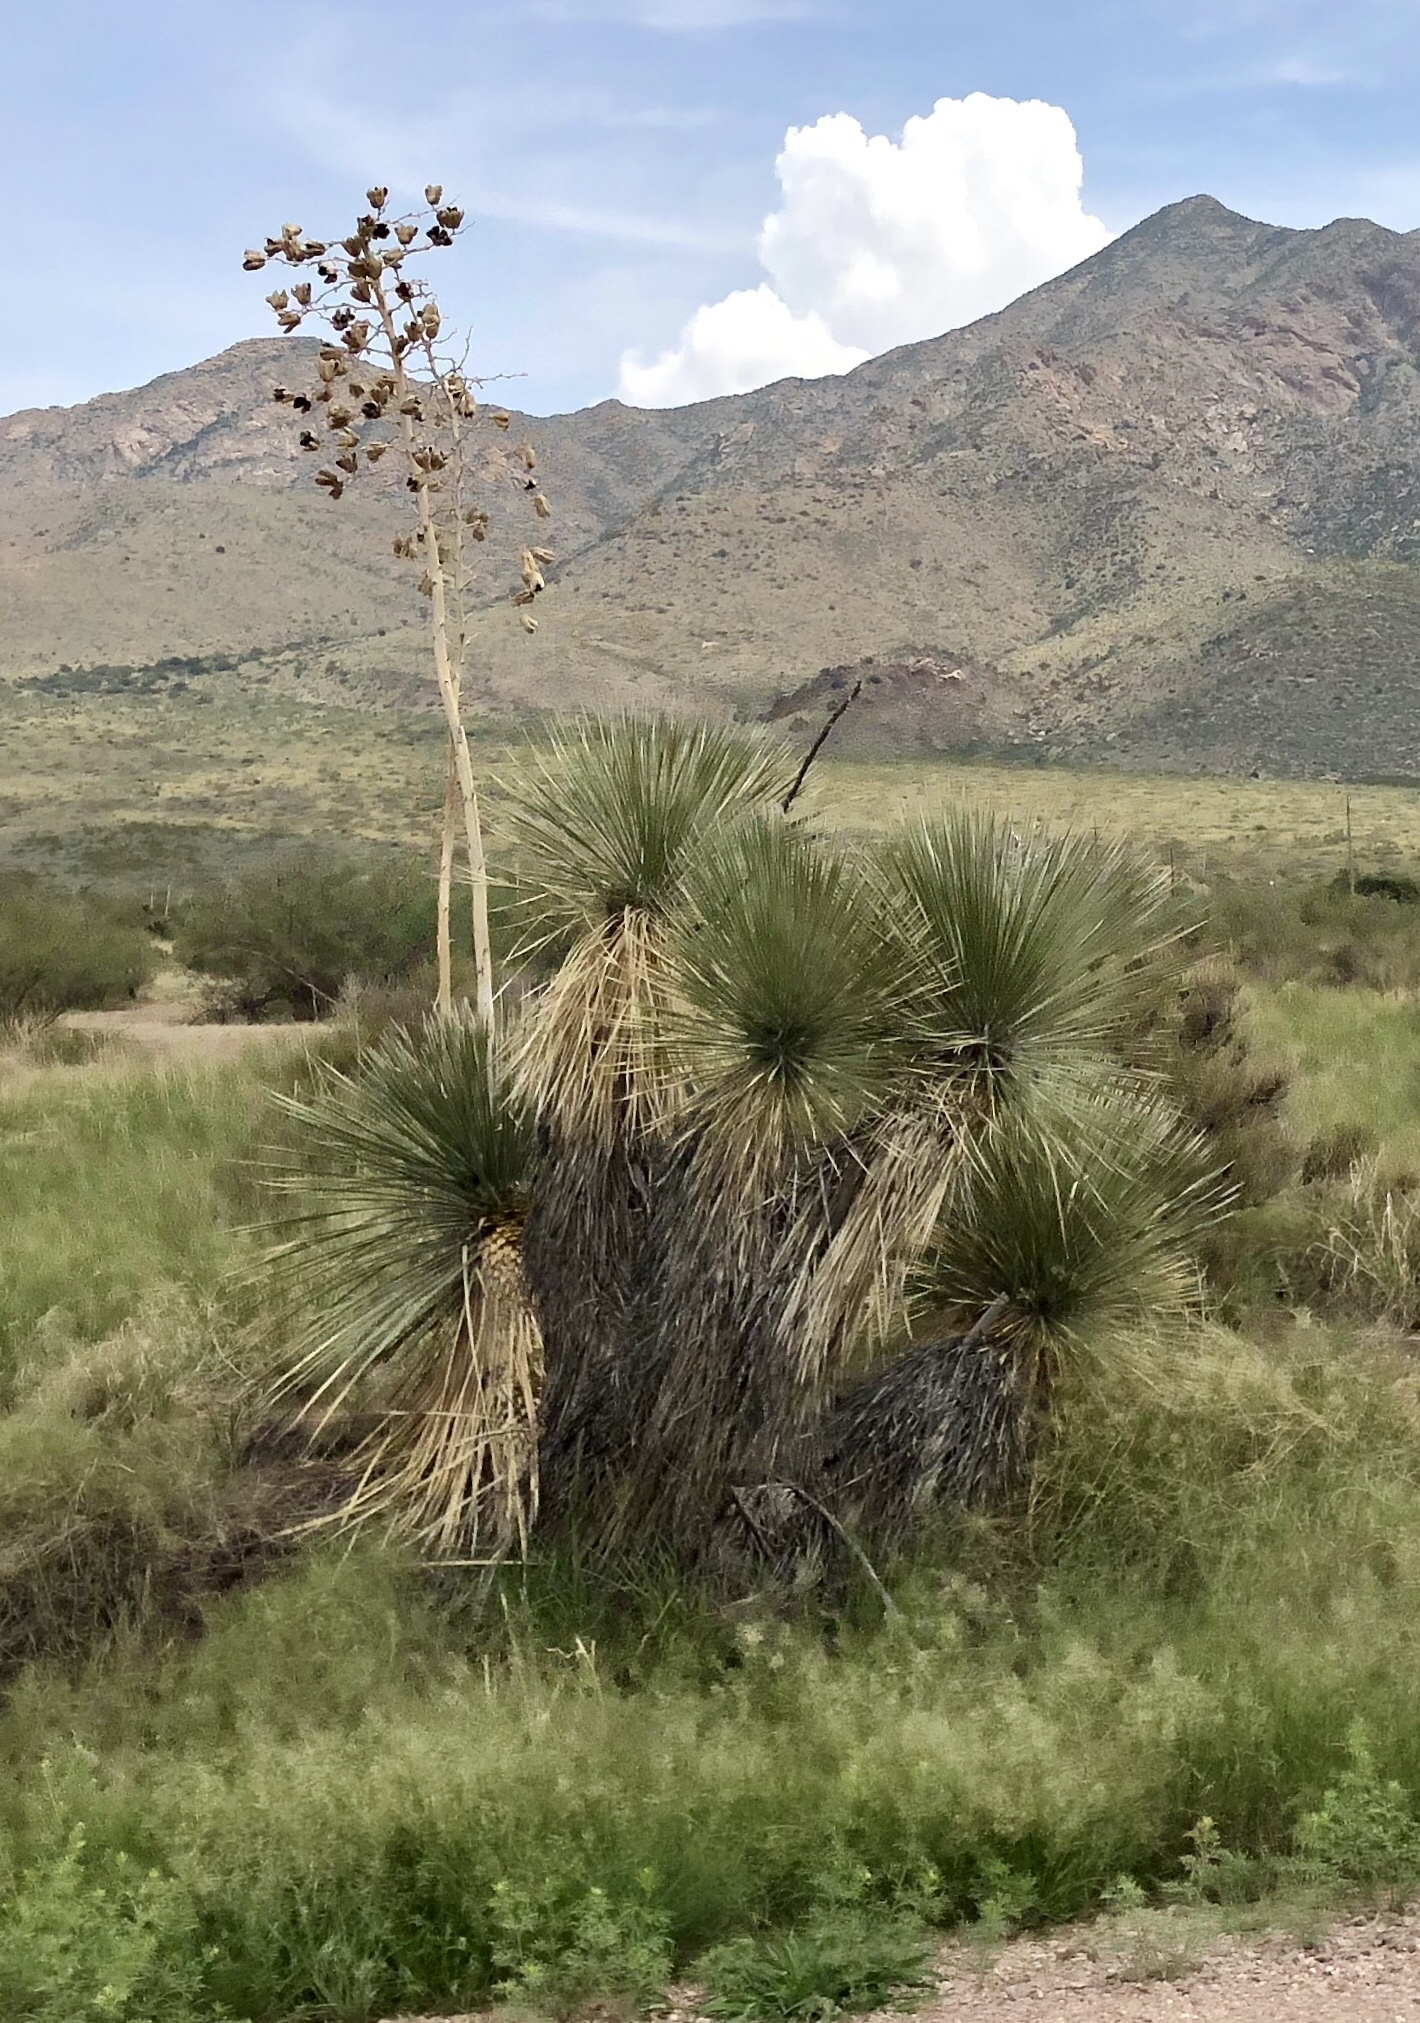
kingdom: Plantae
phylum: Tracheophyta
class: Liliopsida
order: Asparagales
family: Asparagaceae
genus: Yucca
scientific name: Yucca elata
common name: Palmella
